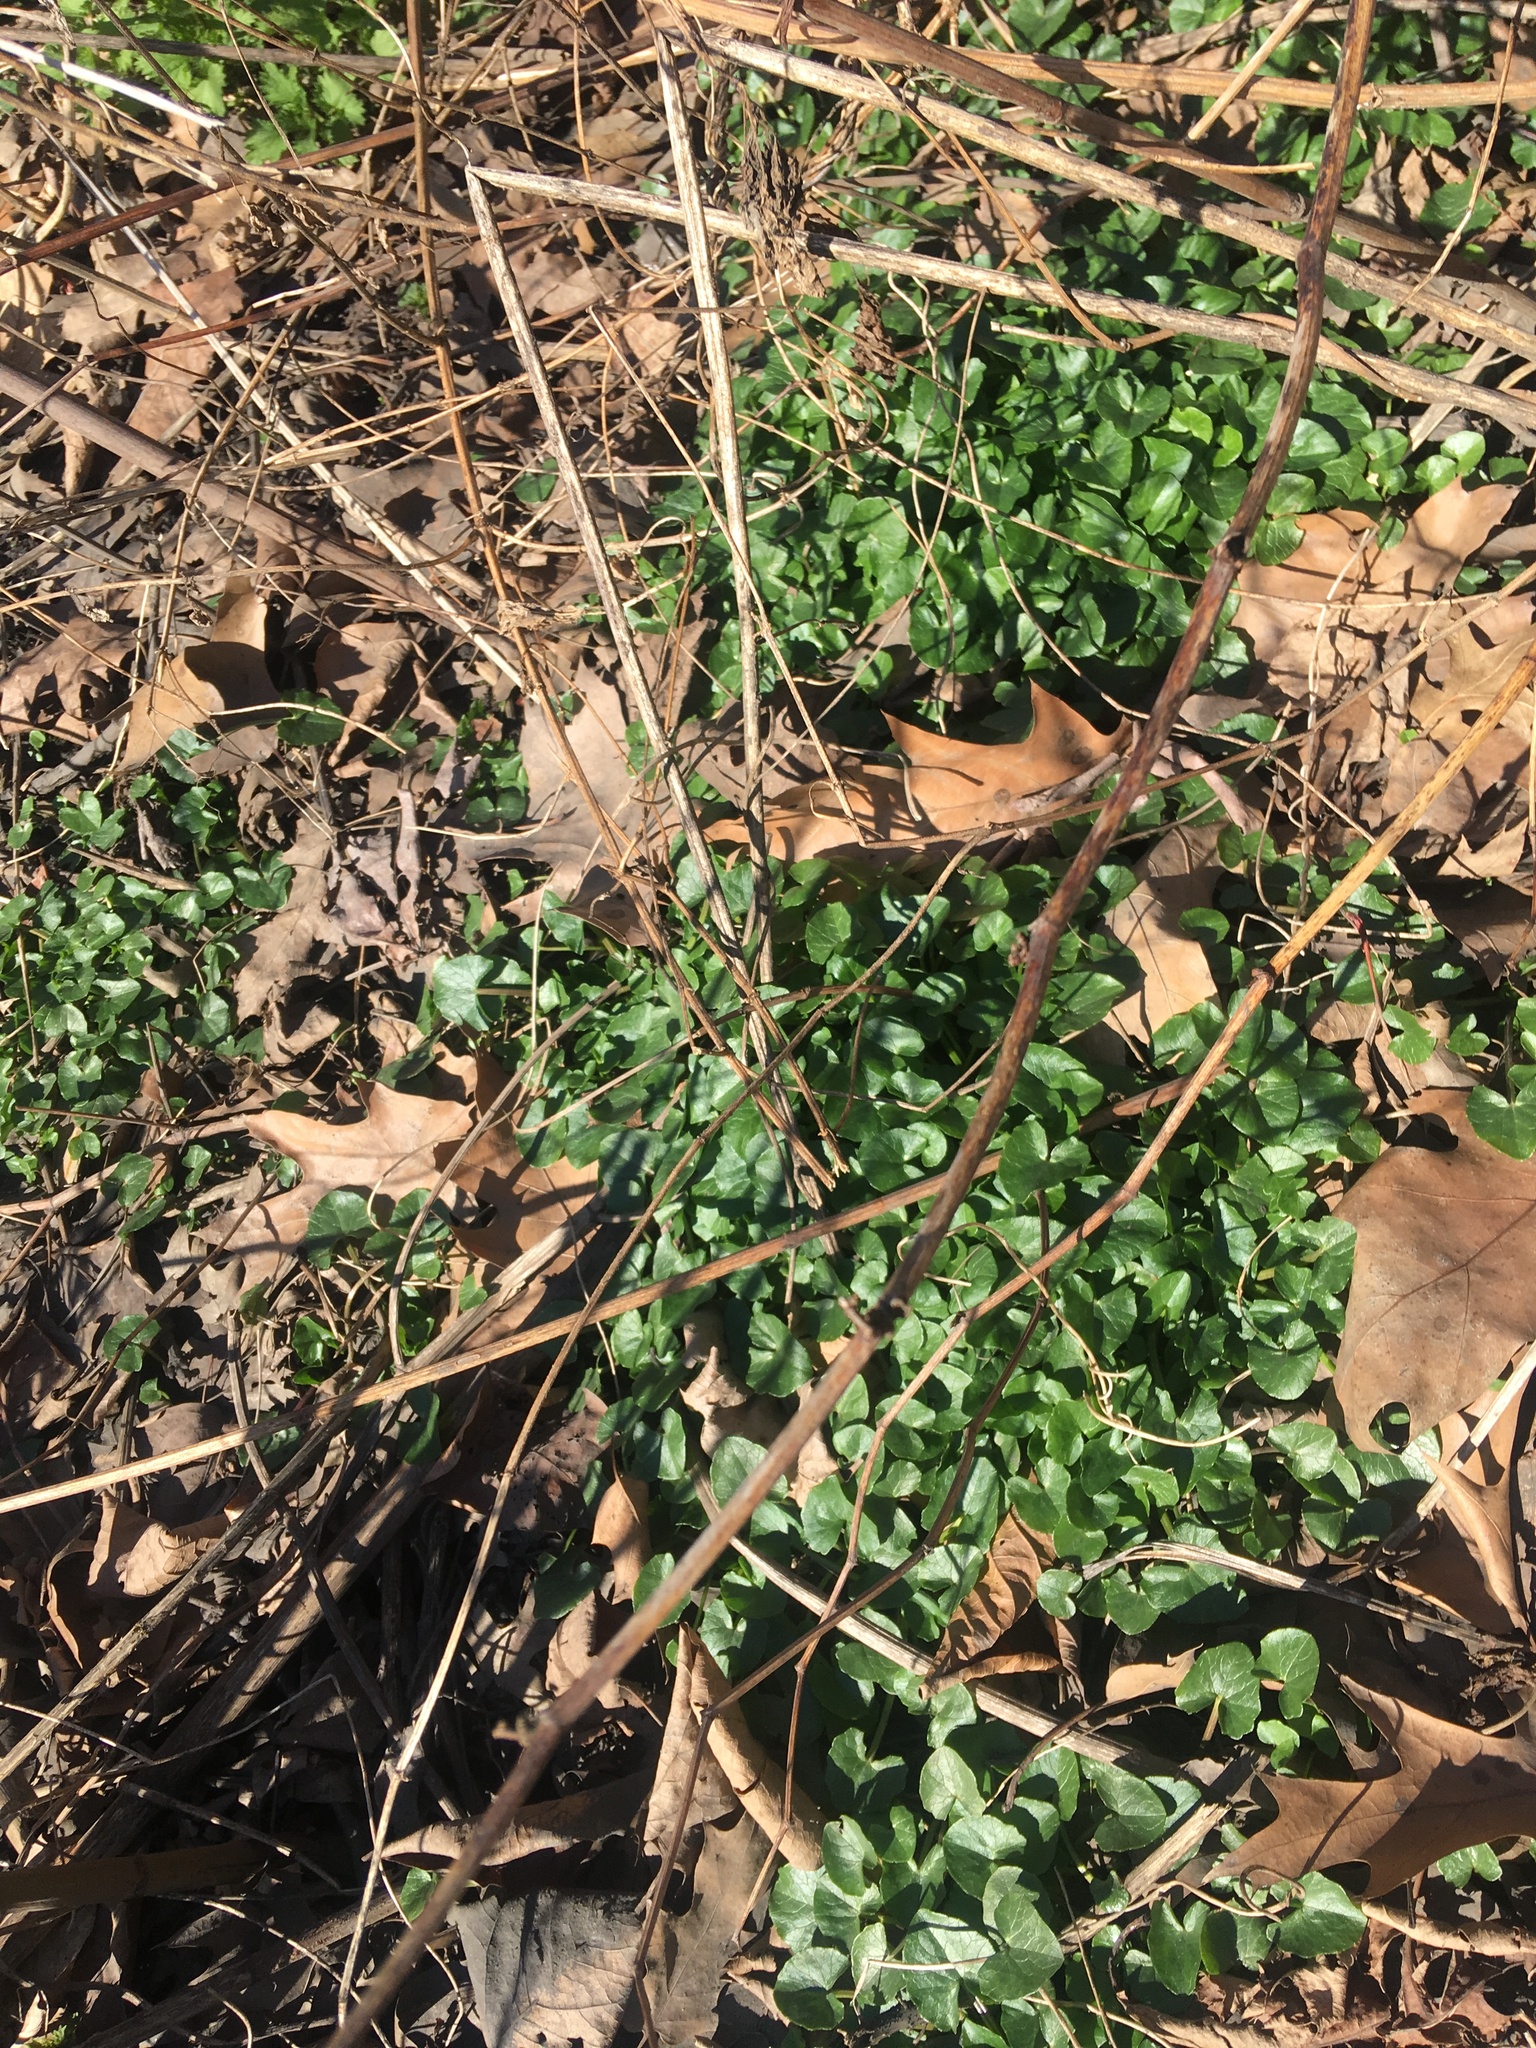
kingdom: Plantae
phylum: Tracheophyta
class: Magnoliopsida
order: Ranunculales
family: Ranunculaceae
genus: Ficaria
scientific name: Ficaria verna
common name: Lesser celandine
